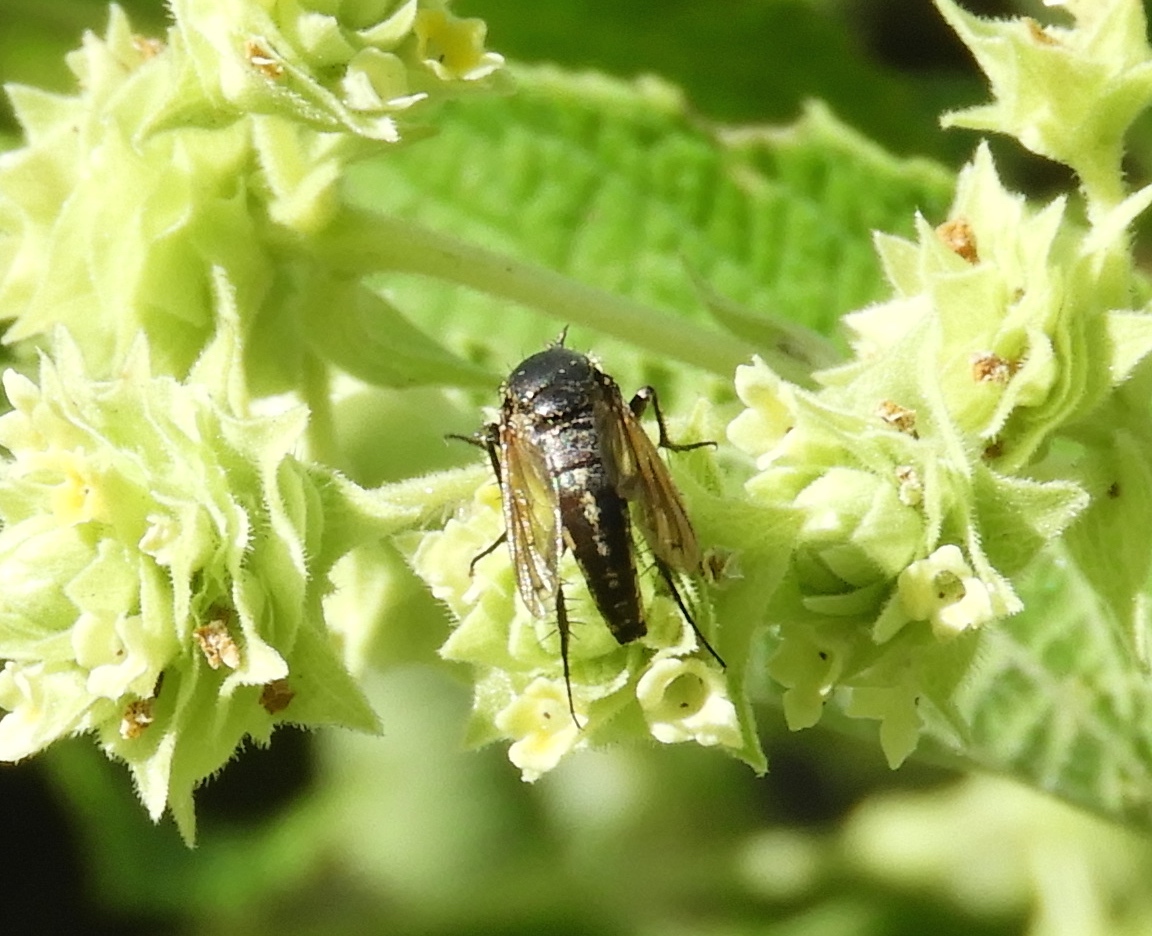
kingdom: Animalia
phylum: Arthropoda
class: Insecta
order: Diptera
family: Bombyliidae
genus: Toxophora
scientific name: Toxophora virgata
